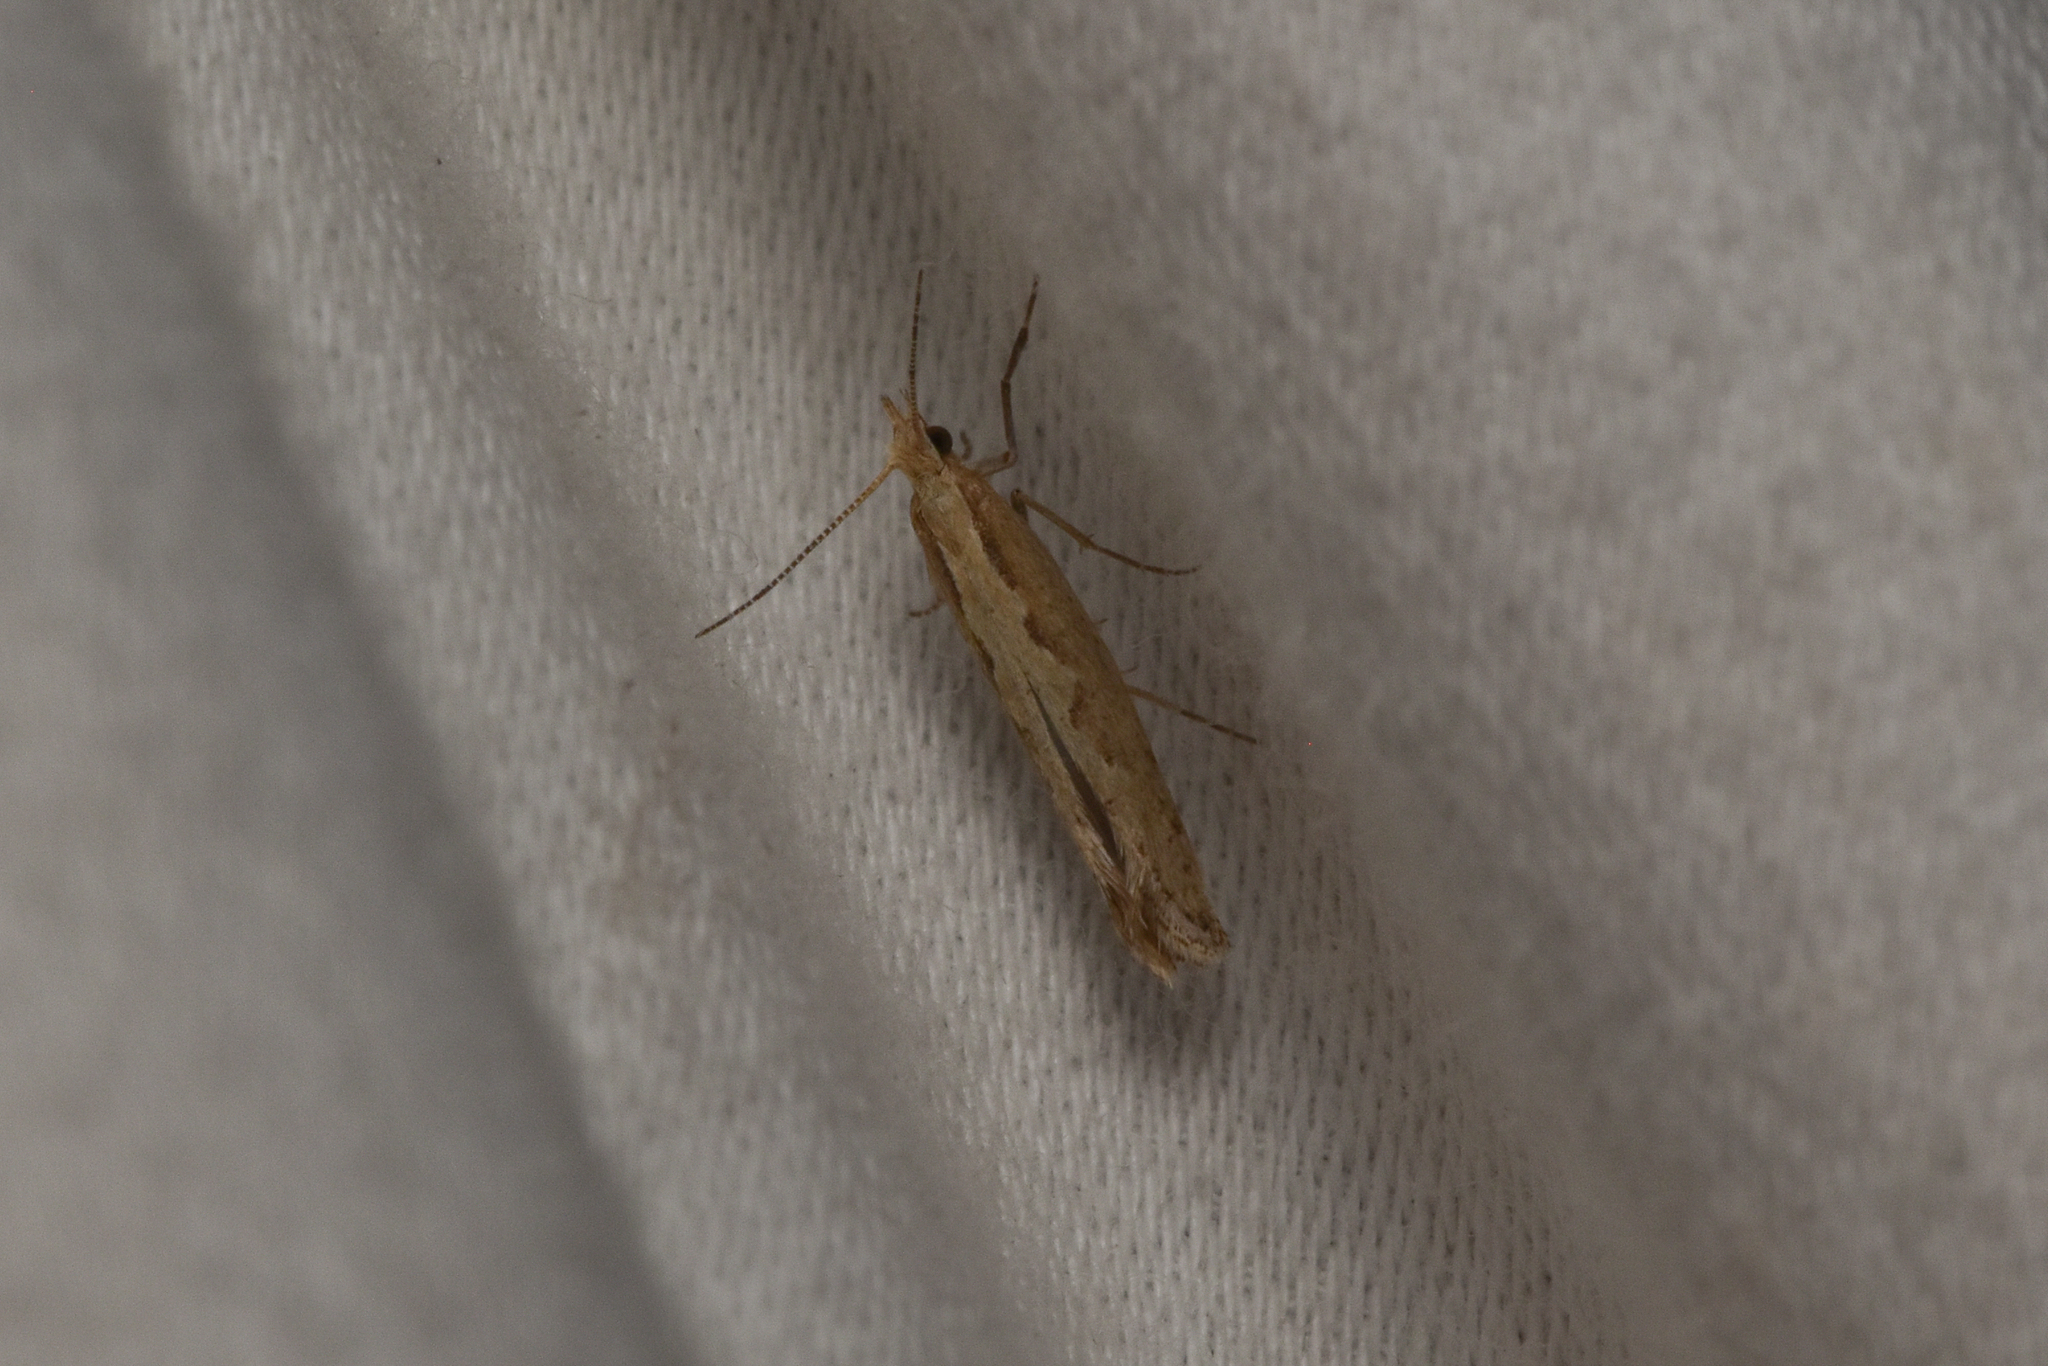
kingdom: Animalia
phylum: Arthropoda
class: Insecta
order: Lepidoptera
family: Plutellidae
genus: Plutella
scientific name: Plutella xylostella
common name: Diamond-back moth
